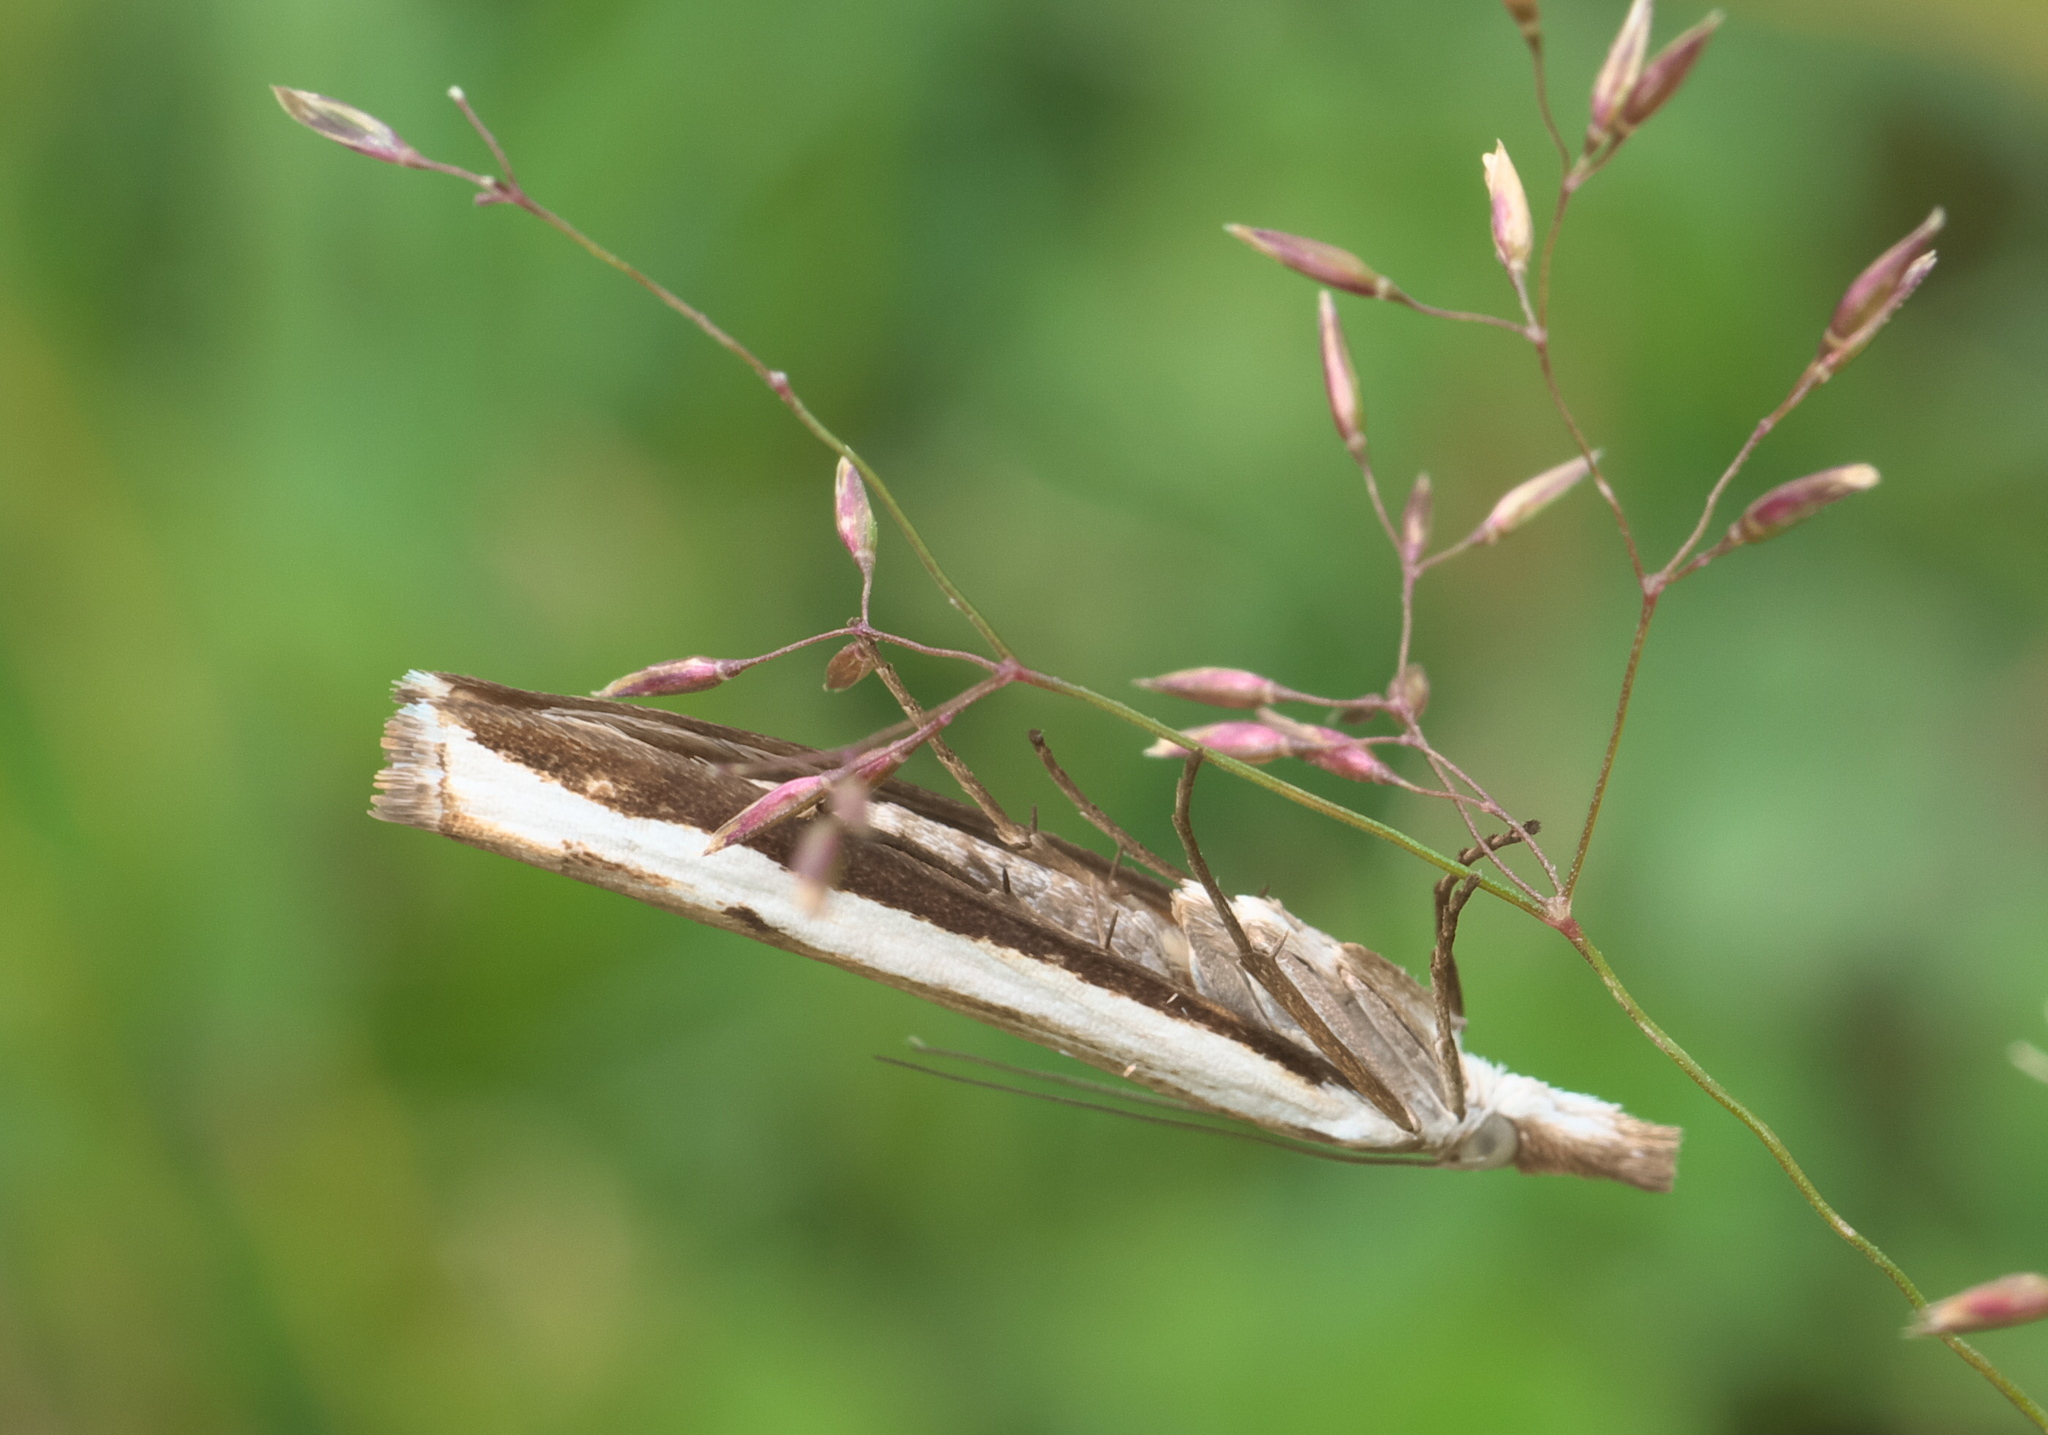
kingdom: Animalia
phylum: Arthropoda
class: Insecta
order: Lepidoptera
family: Crambidae
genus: Orocrambus
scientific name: Orocrambus flexuosellus
